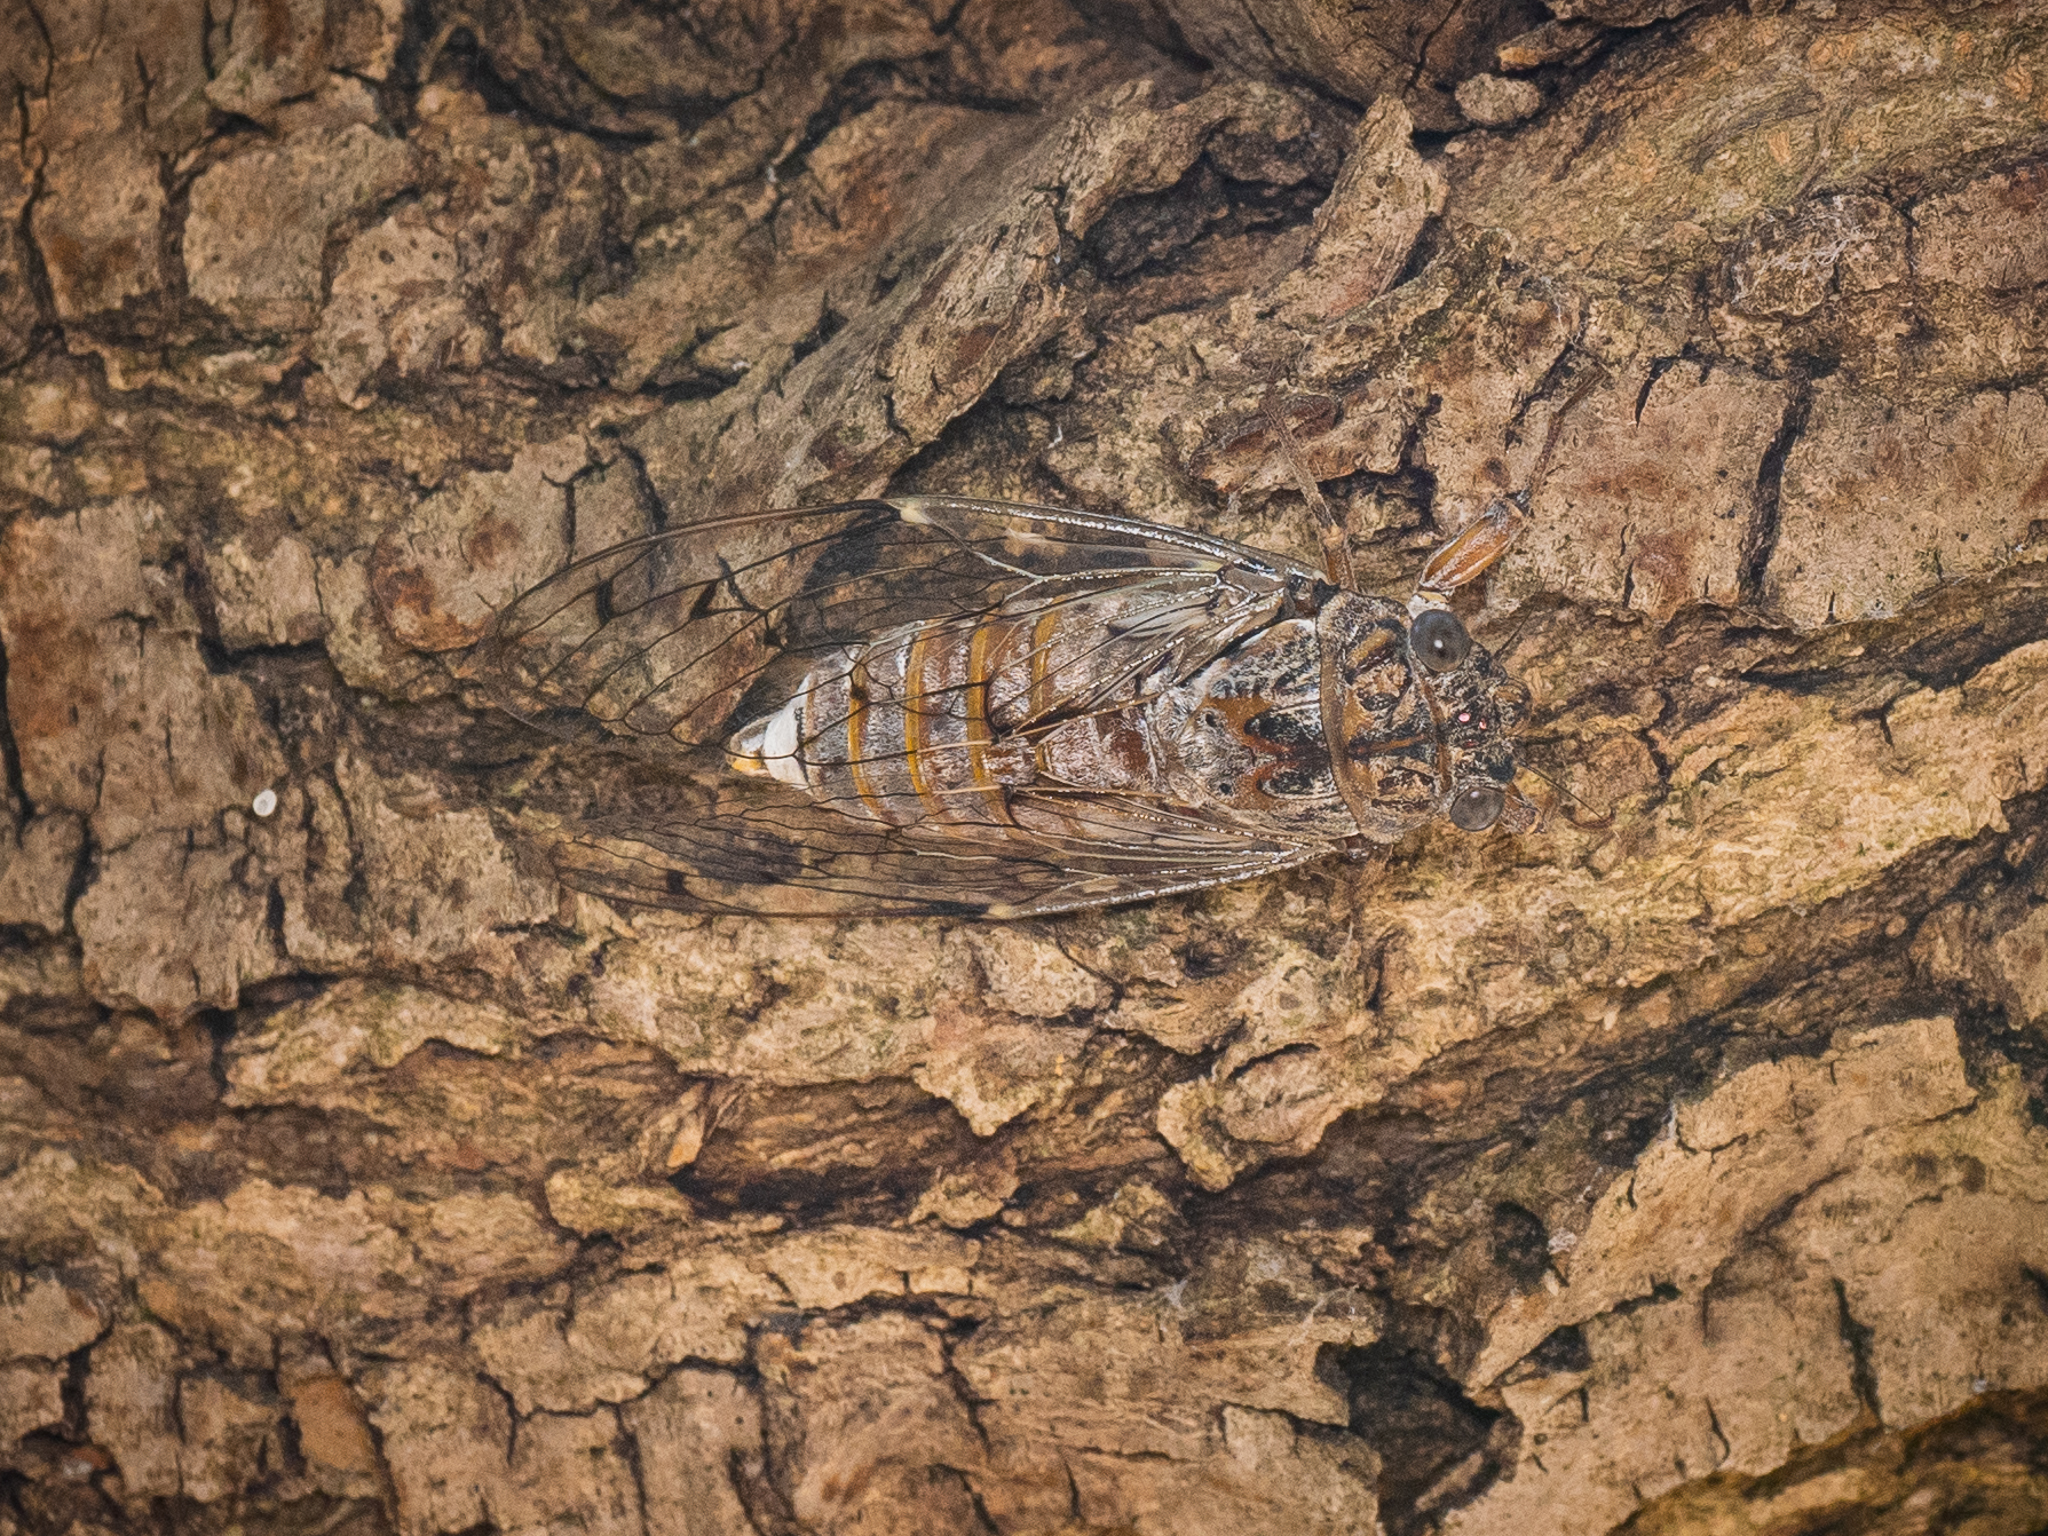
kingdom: Animalia
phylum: Arthropoda
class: Insecta
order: Hemiptera
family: Cicadidae
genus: Cicada
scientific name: Cicada orni
